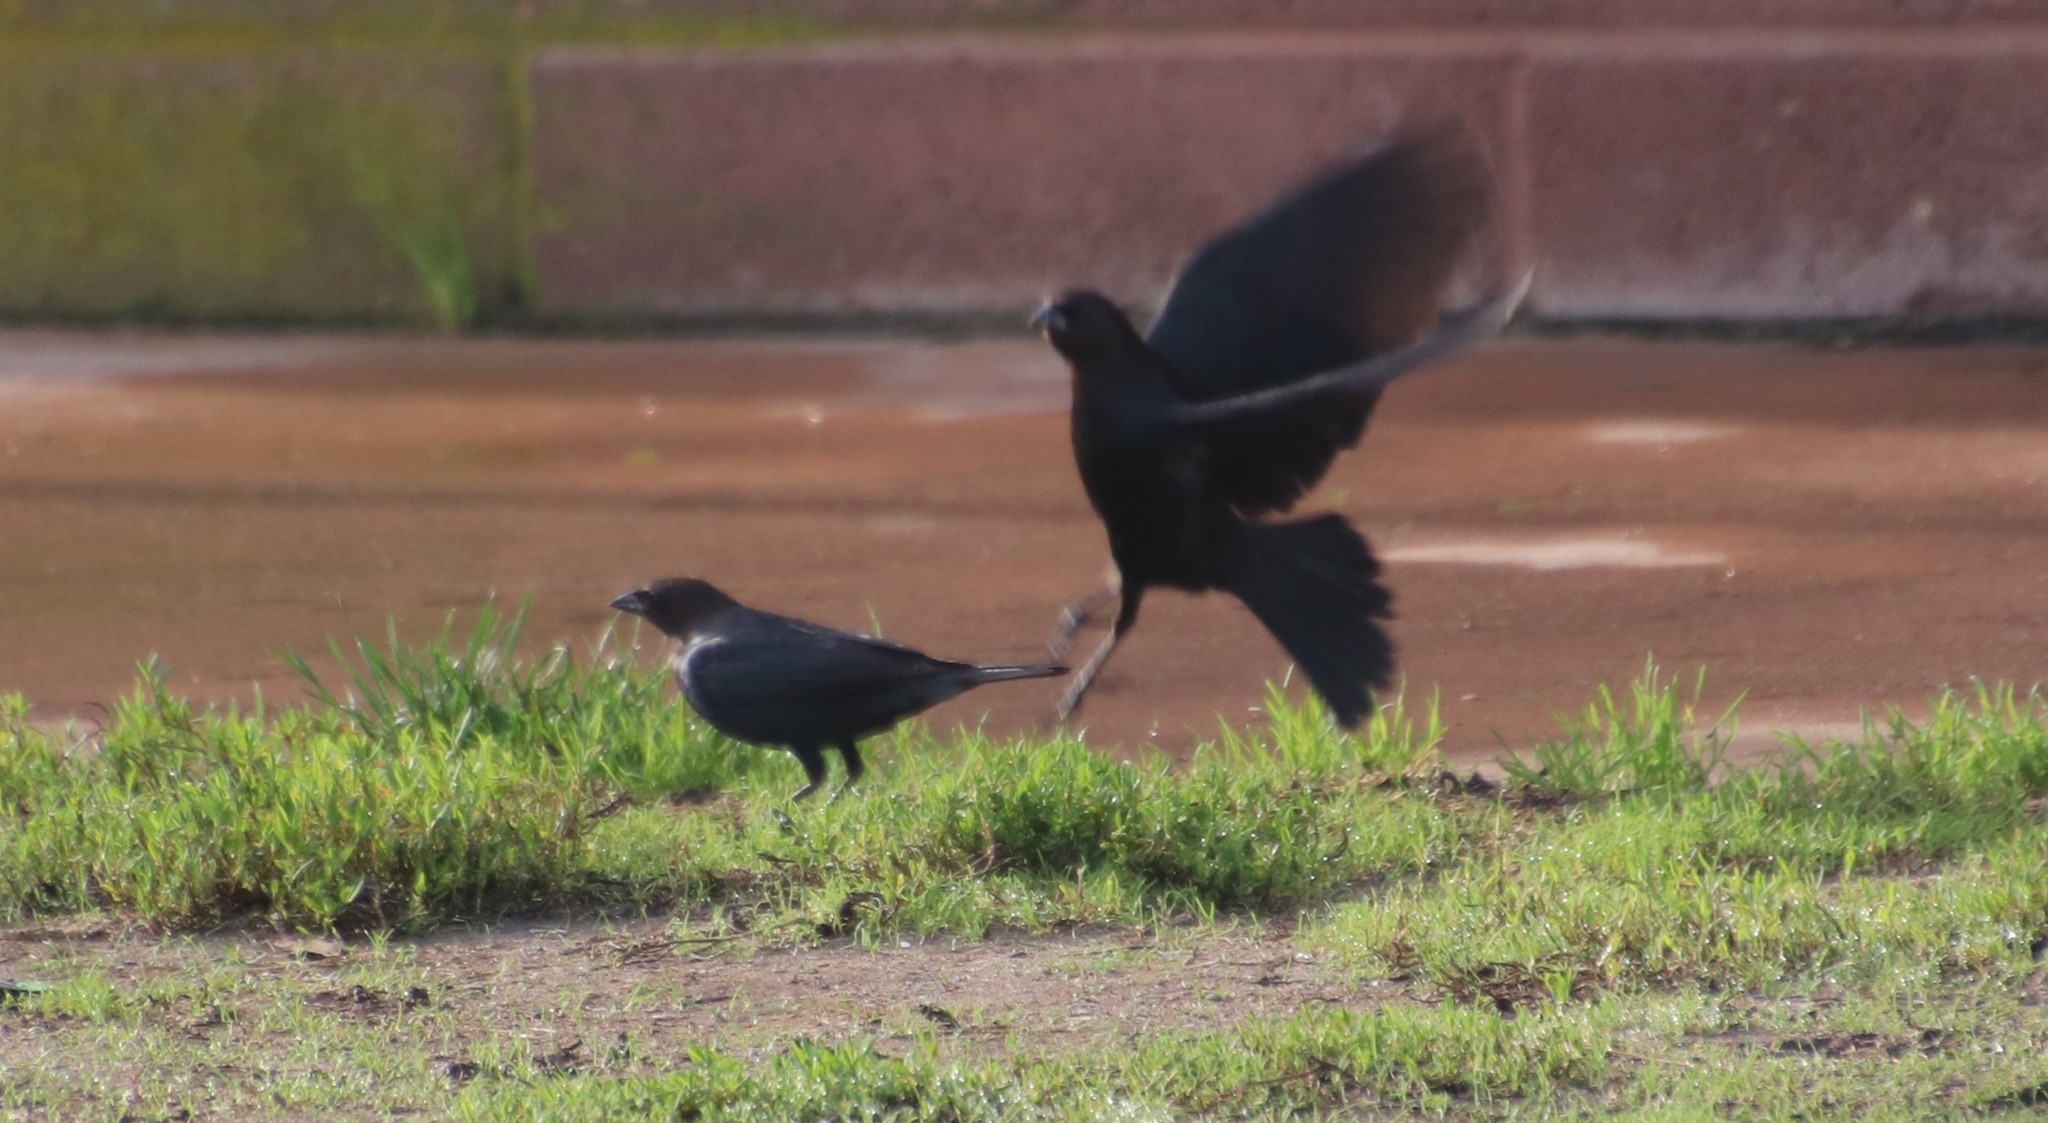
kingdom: Animalia
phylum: Chordata
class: Aves
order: Passeriformes
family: Icteridae
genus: Molothrus
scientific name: Molothrus ater
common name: Brown-headed cowbird
